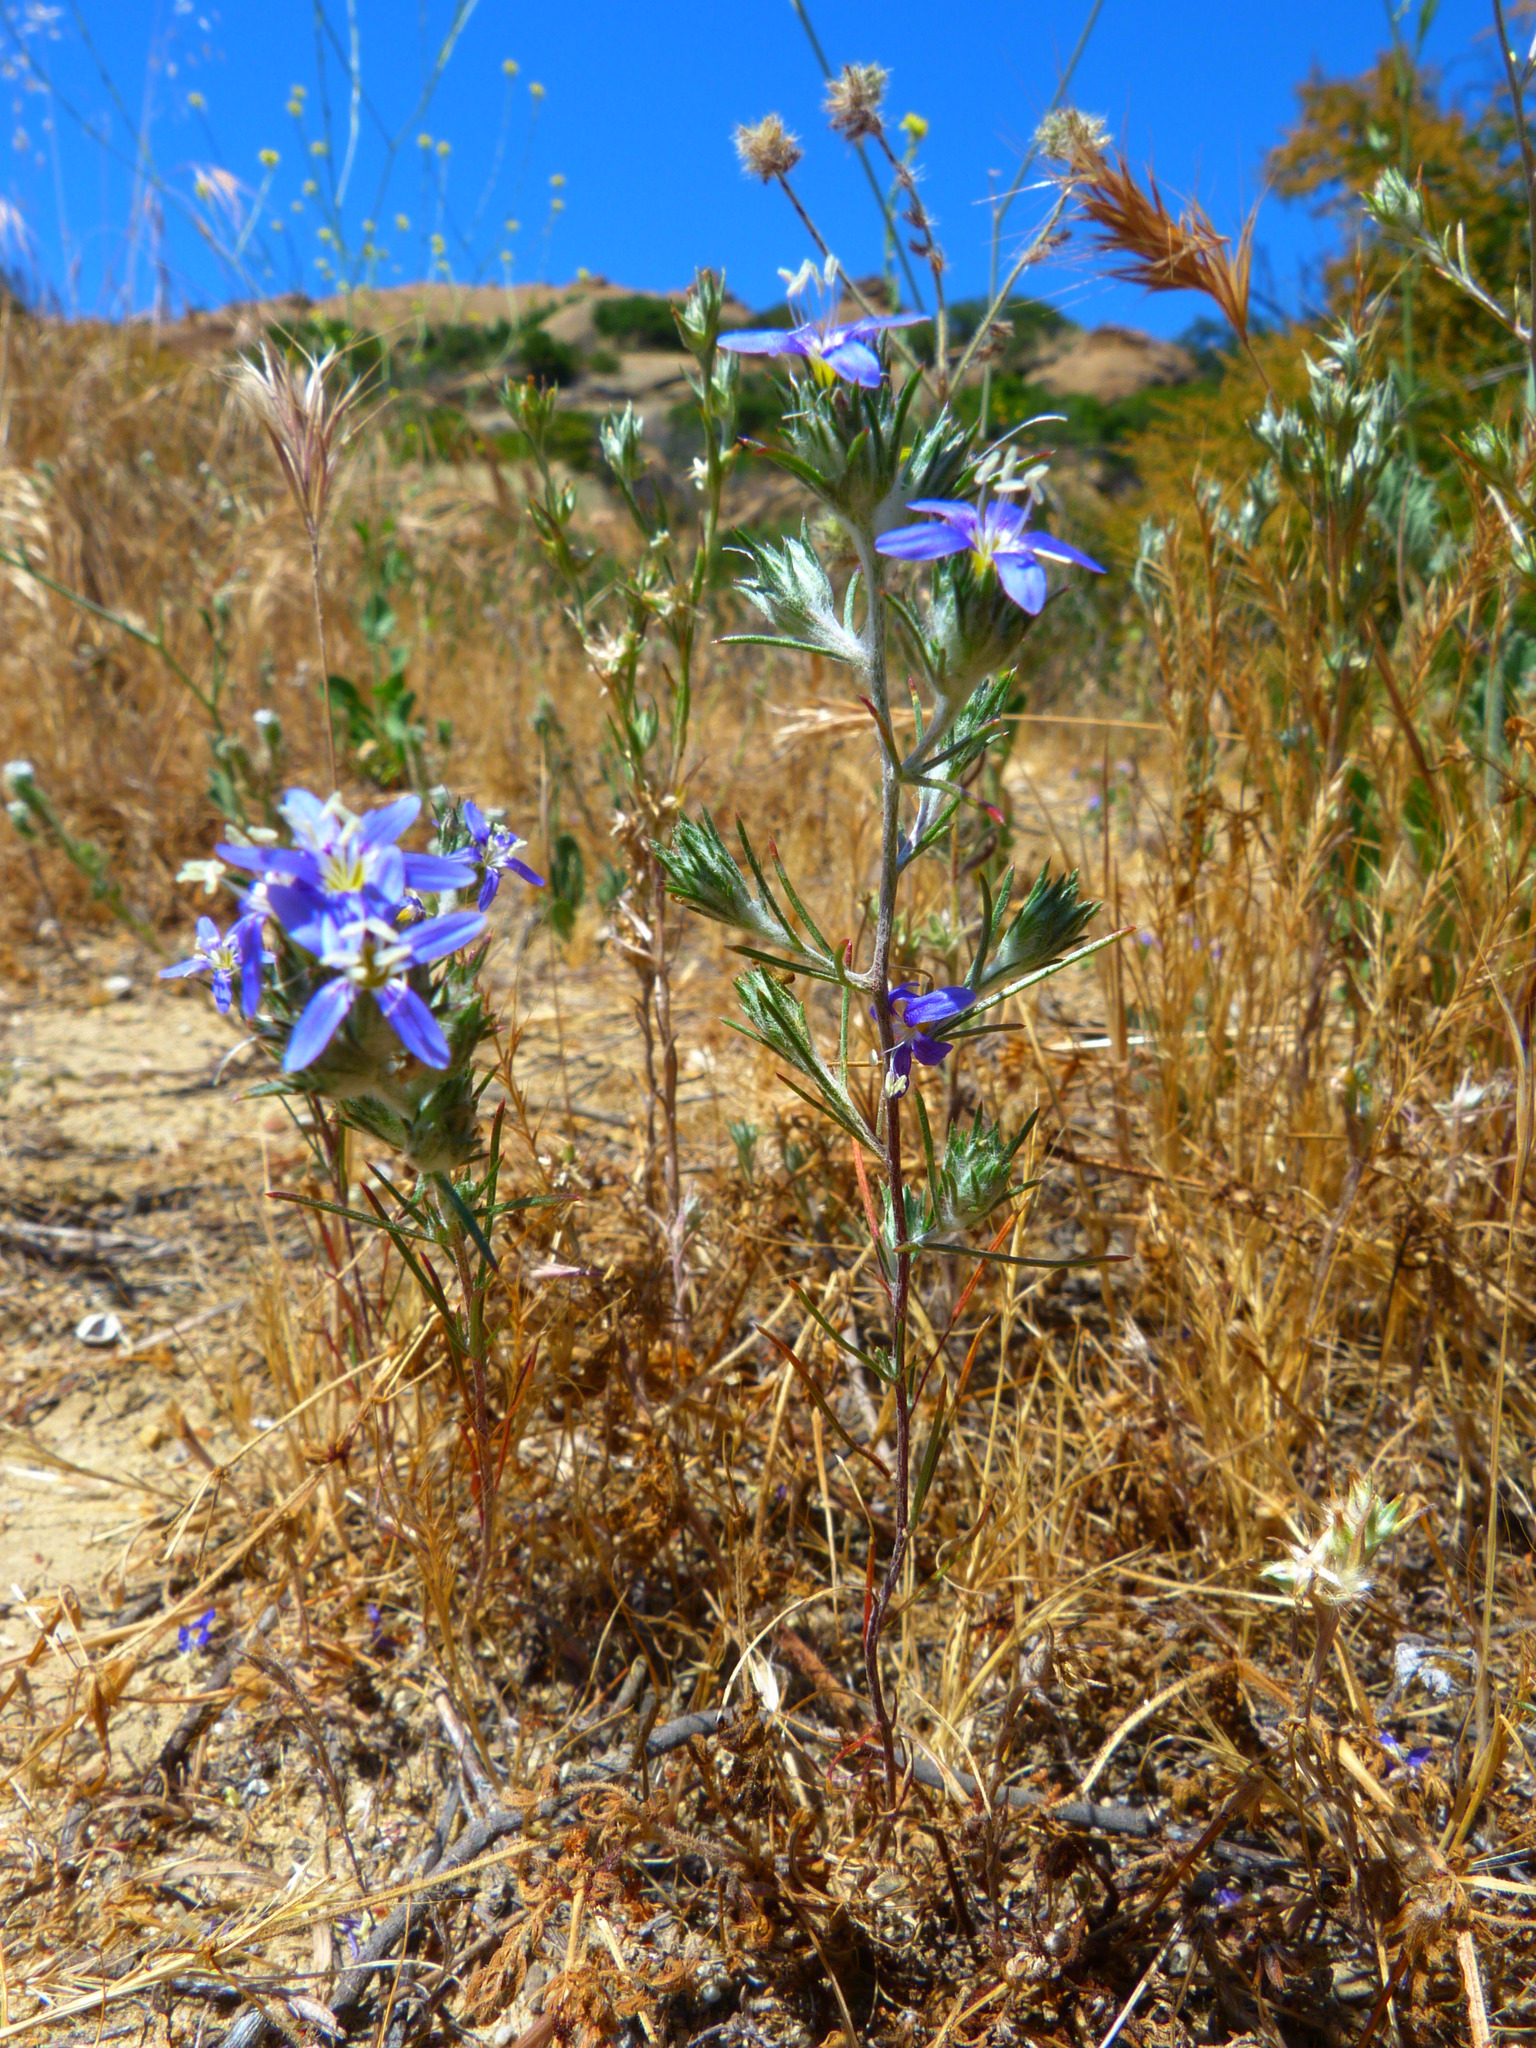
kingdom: Plantae
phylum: Tracheophyta
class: Magnoliopsida
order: Ericales
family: Polemoniaceae
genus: Eriastrum
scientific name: Eriastrum sapphirinum
